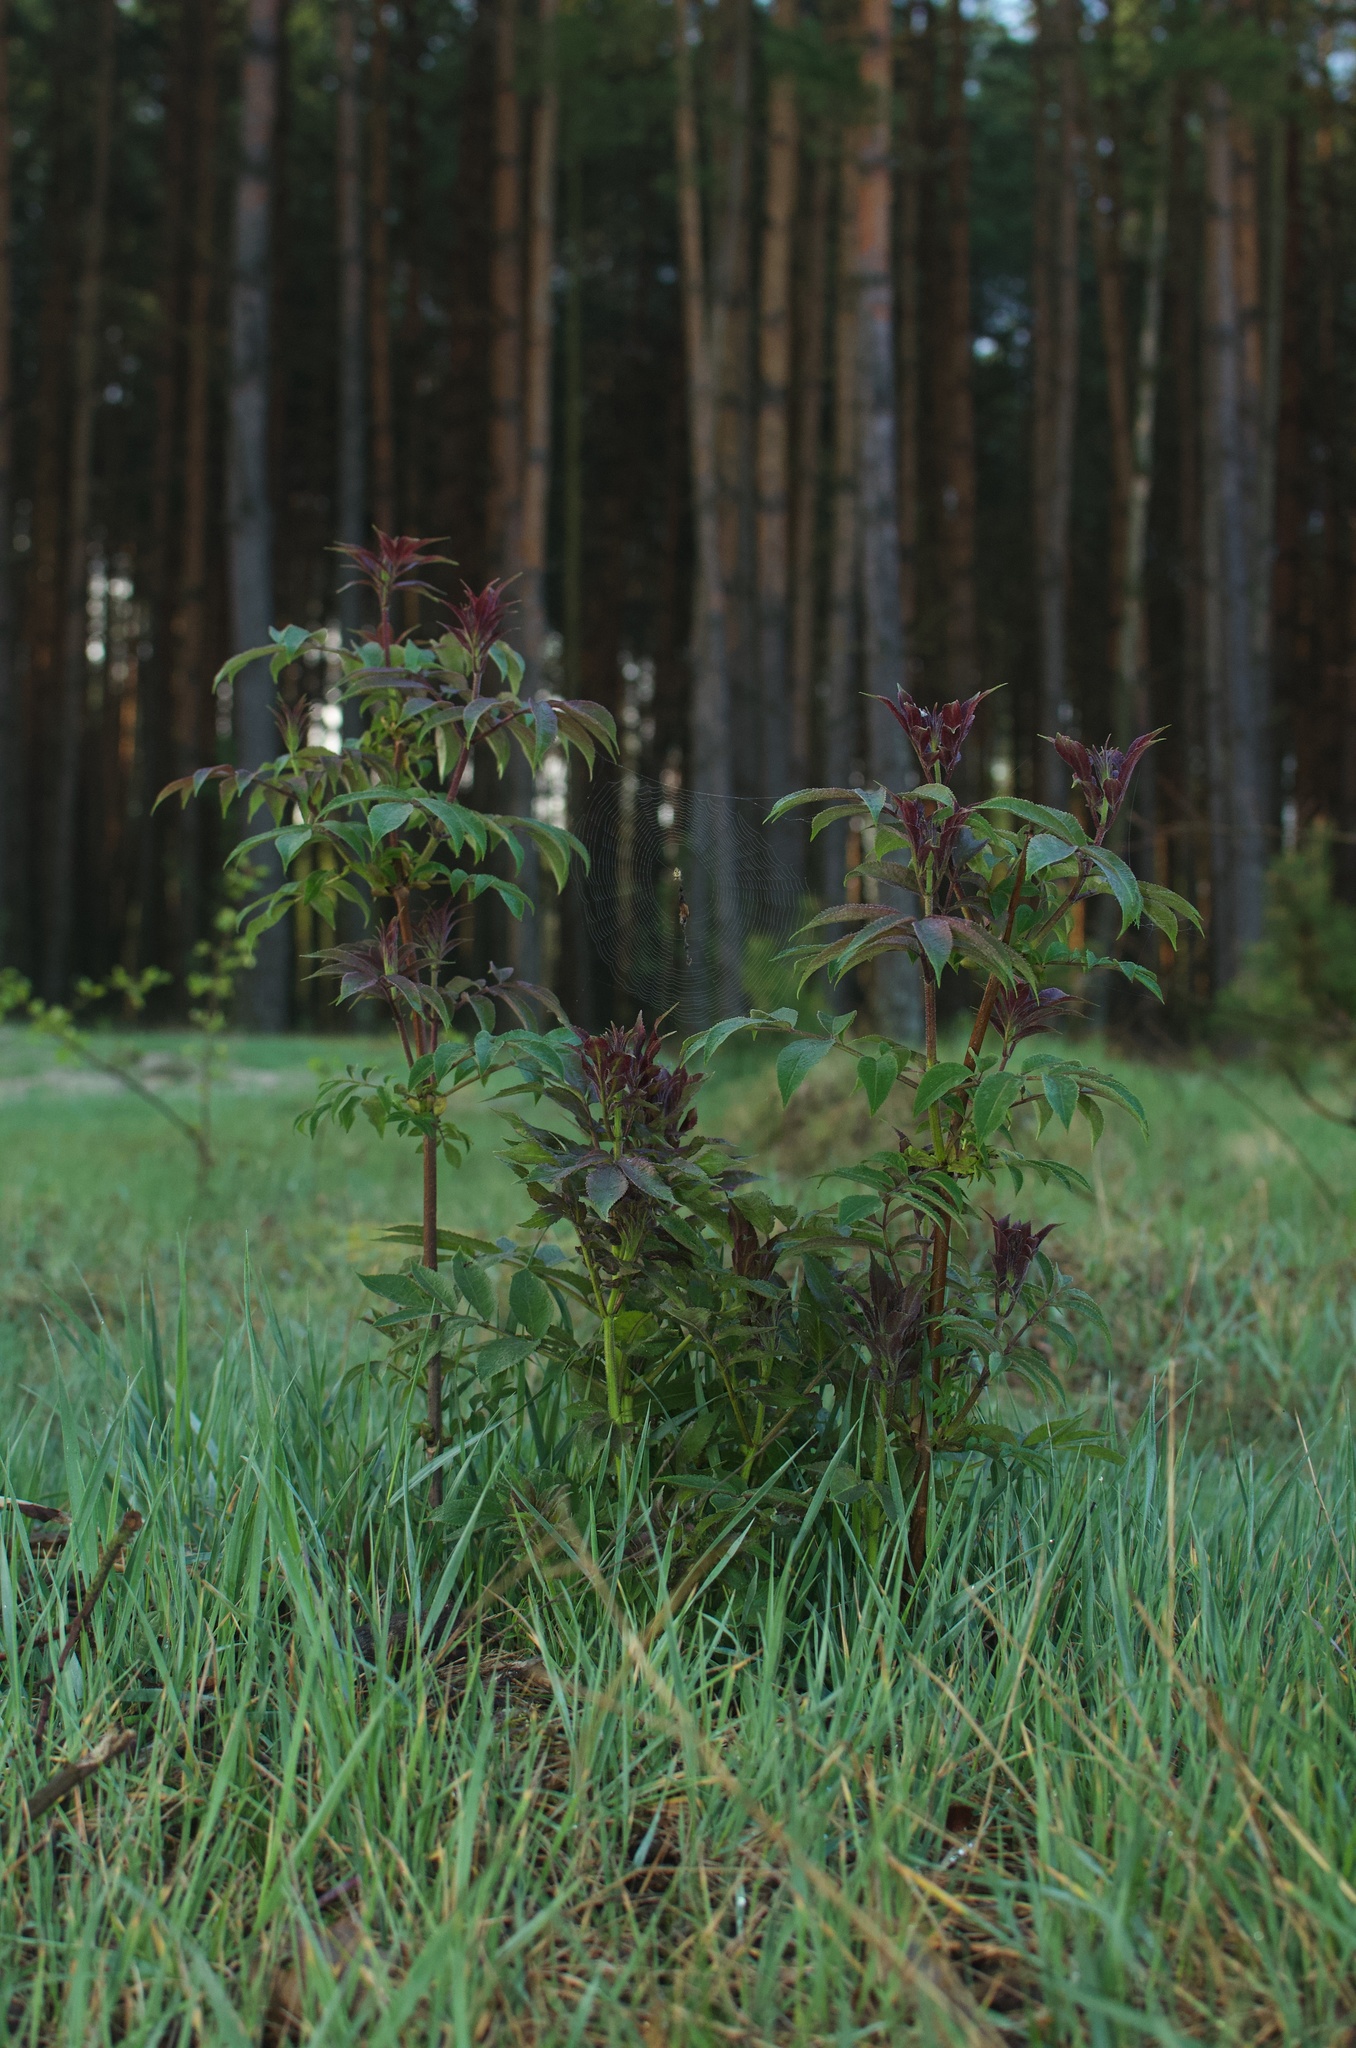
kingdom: Plantae
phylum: Tracheophyta
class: Magnoliopsida
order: Dipsacales
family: Viburnaceae
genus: Sambucus
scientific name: Sambucus racemosa
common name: Red-berried elder
